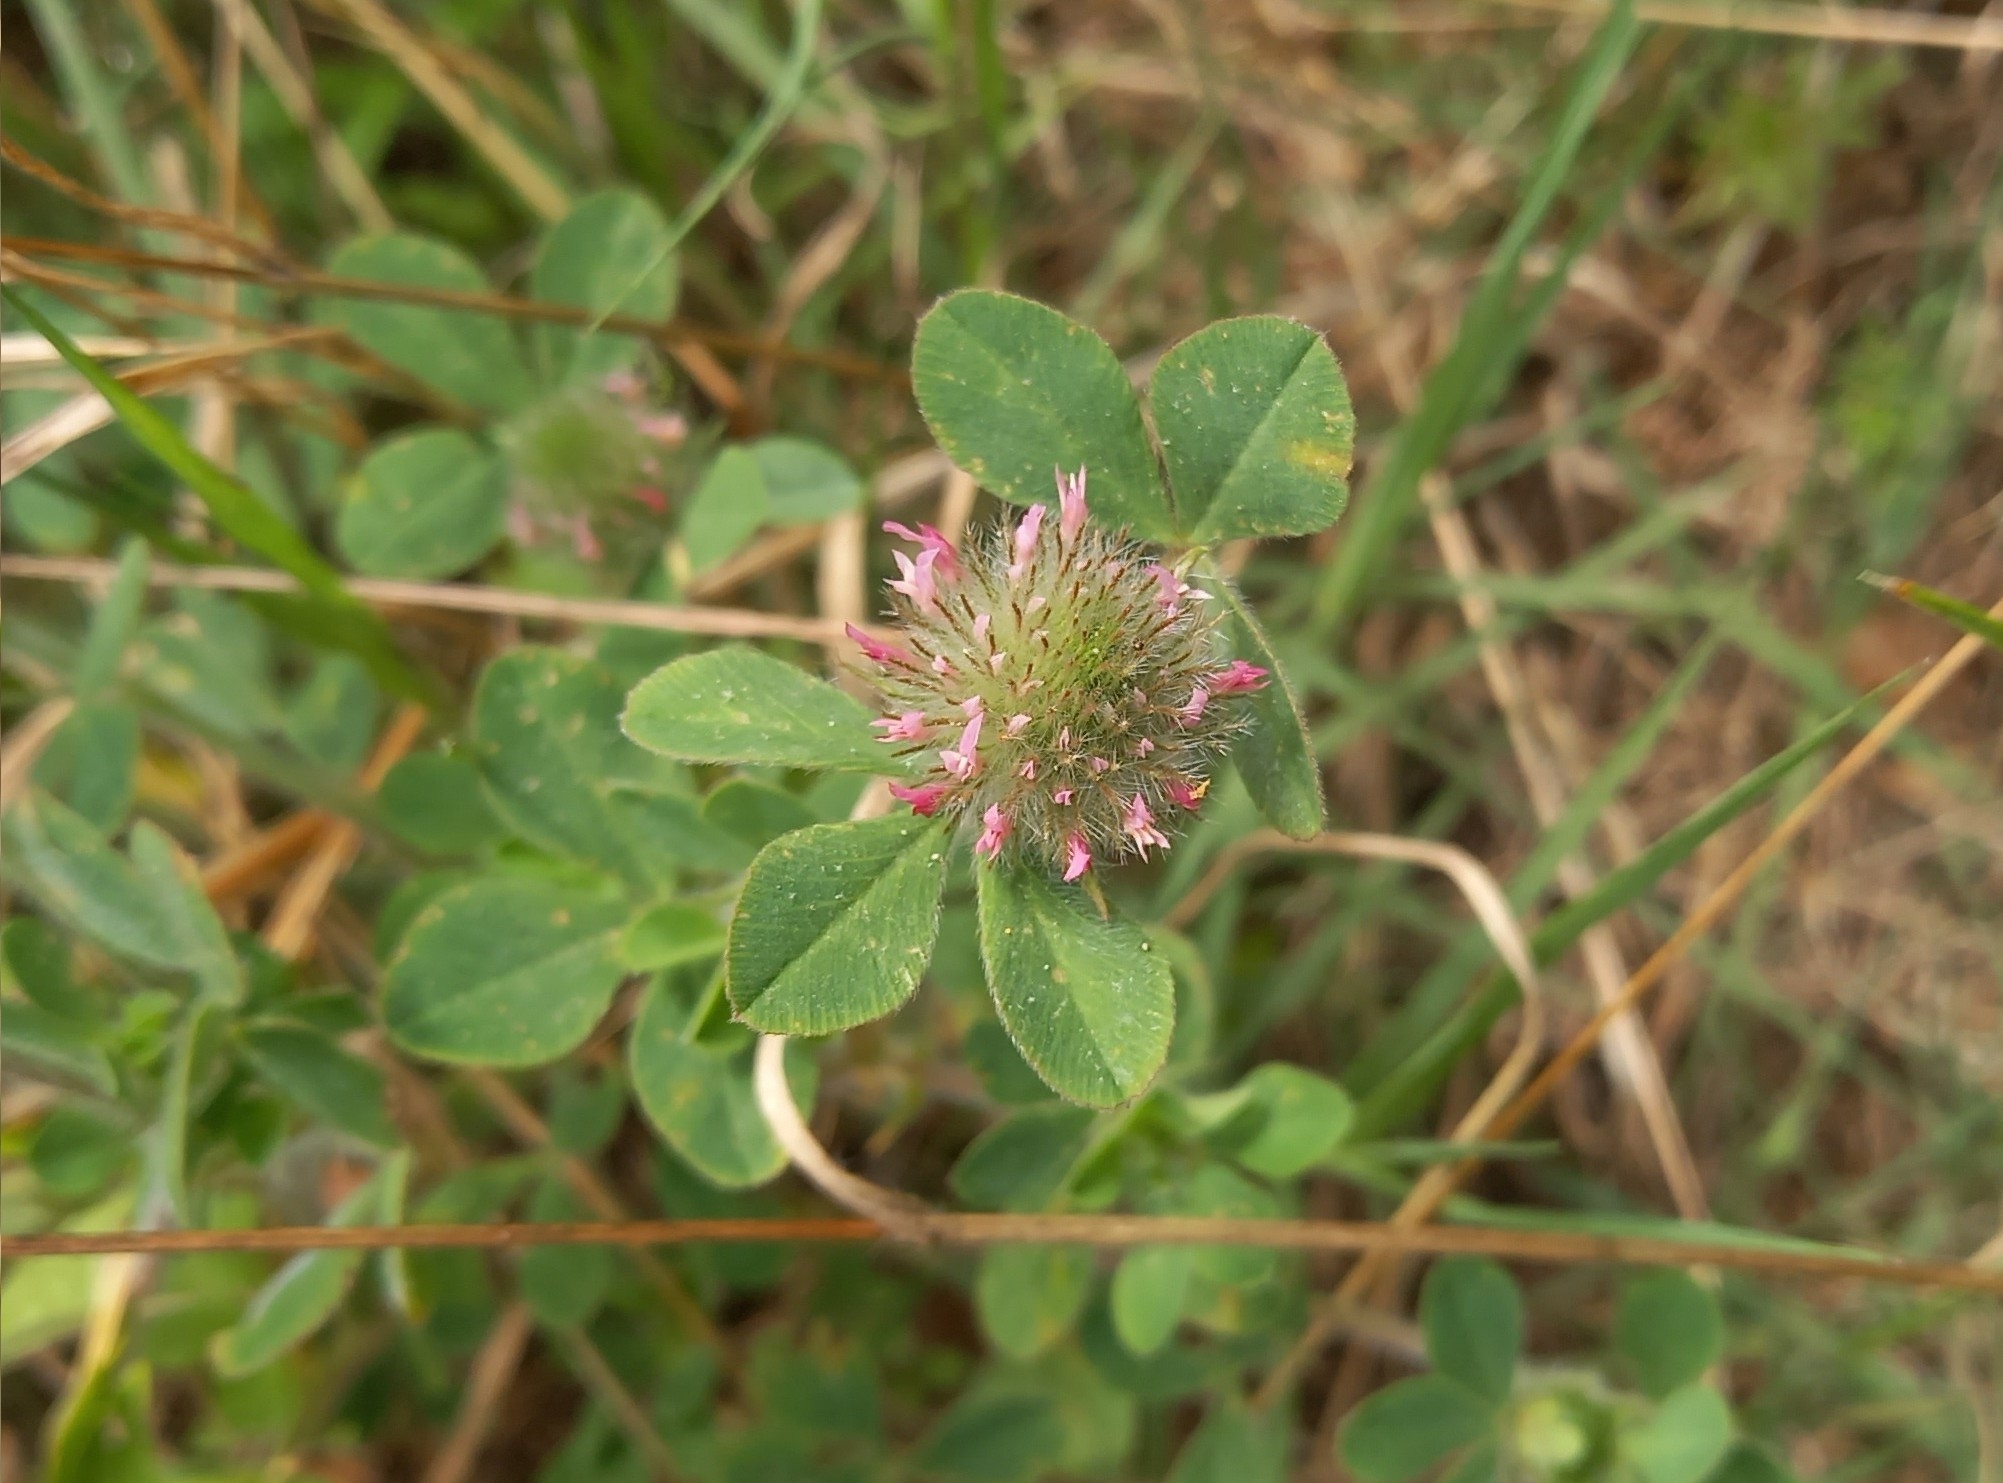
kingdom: Plantae
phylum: Tracheophyta
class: Magnoliopsida
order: Fabales
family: Fabaceae
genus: Trifolium
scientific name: Trifolium hirtum
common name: Rose clover
